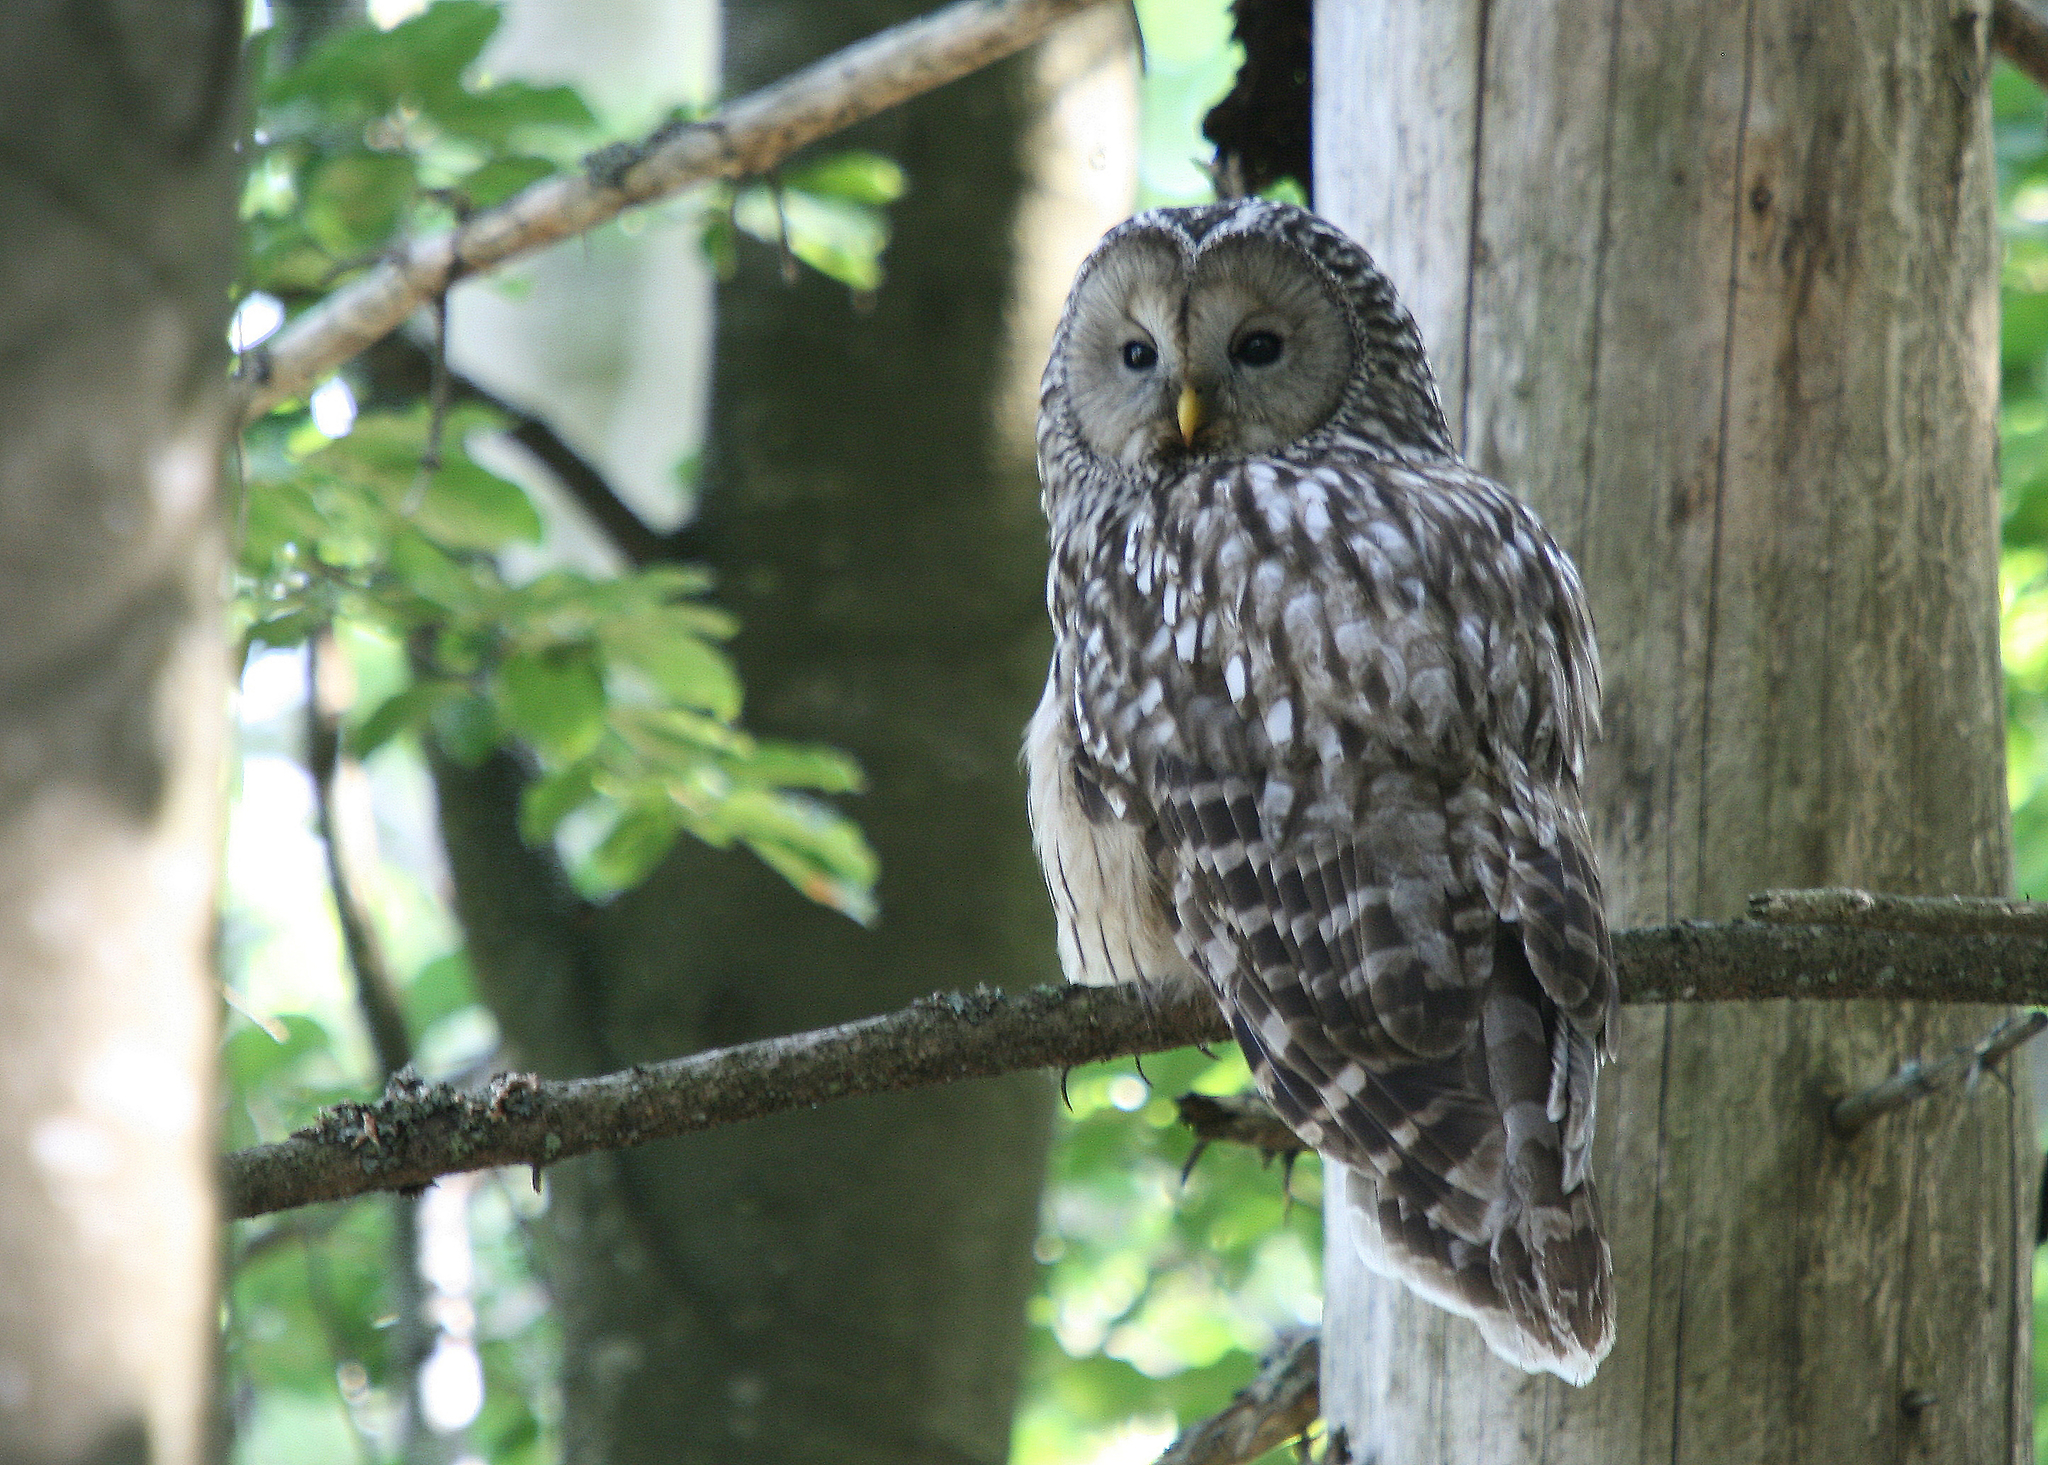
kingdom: Animalia
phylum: Chordata
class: Aves
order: Strigiformes
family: Strigidae
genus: Strix
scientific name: Strix uralensis
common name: Ural owl
